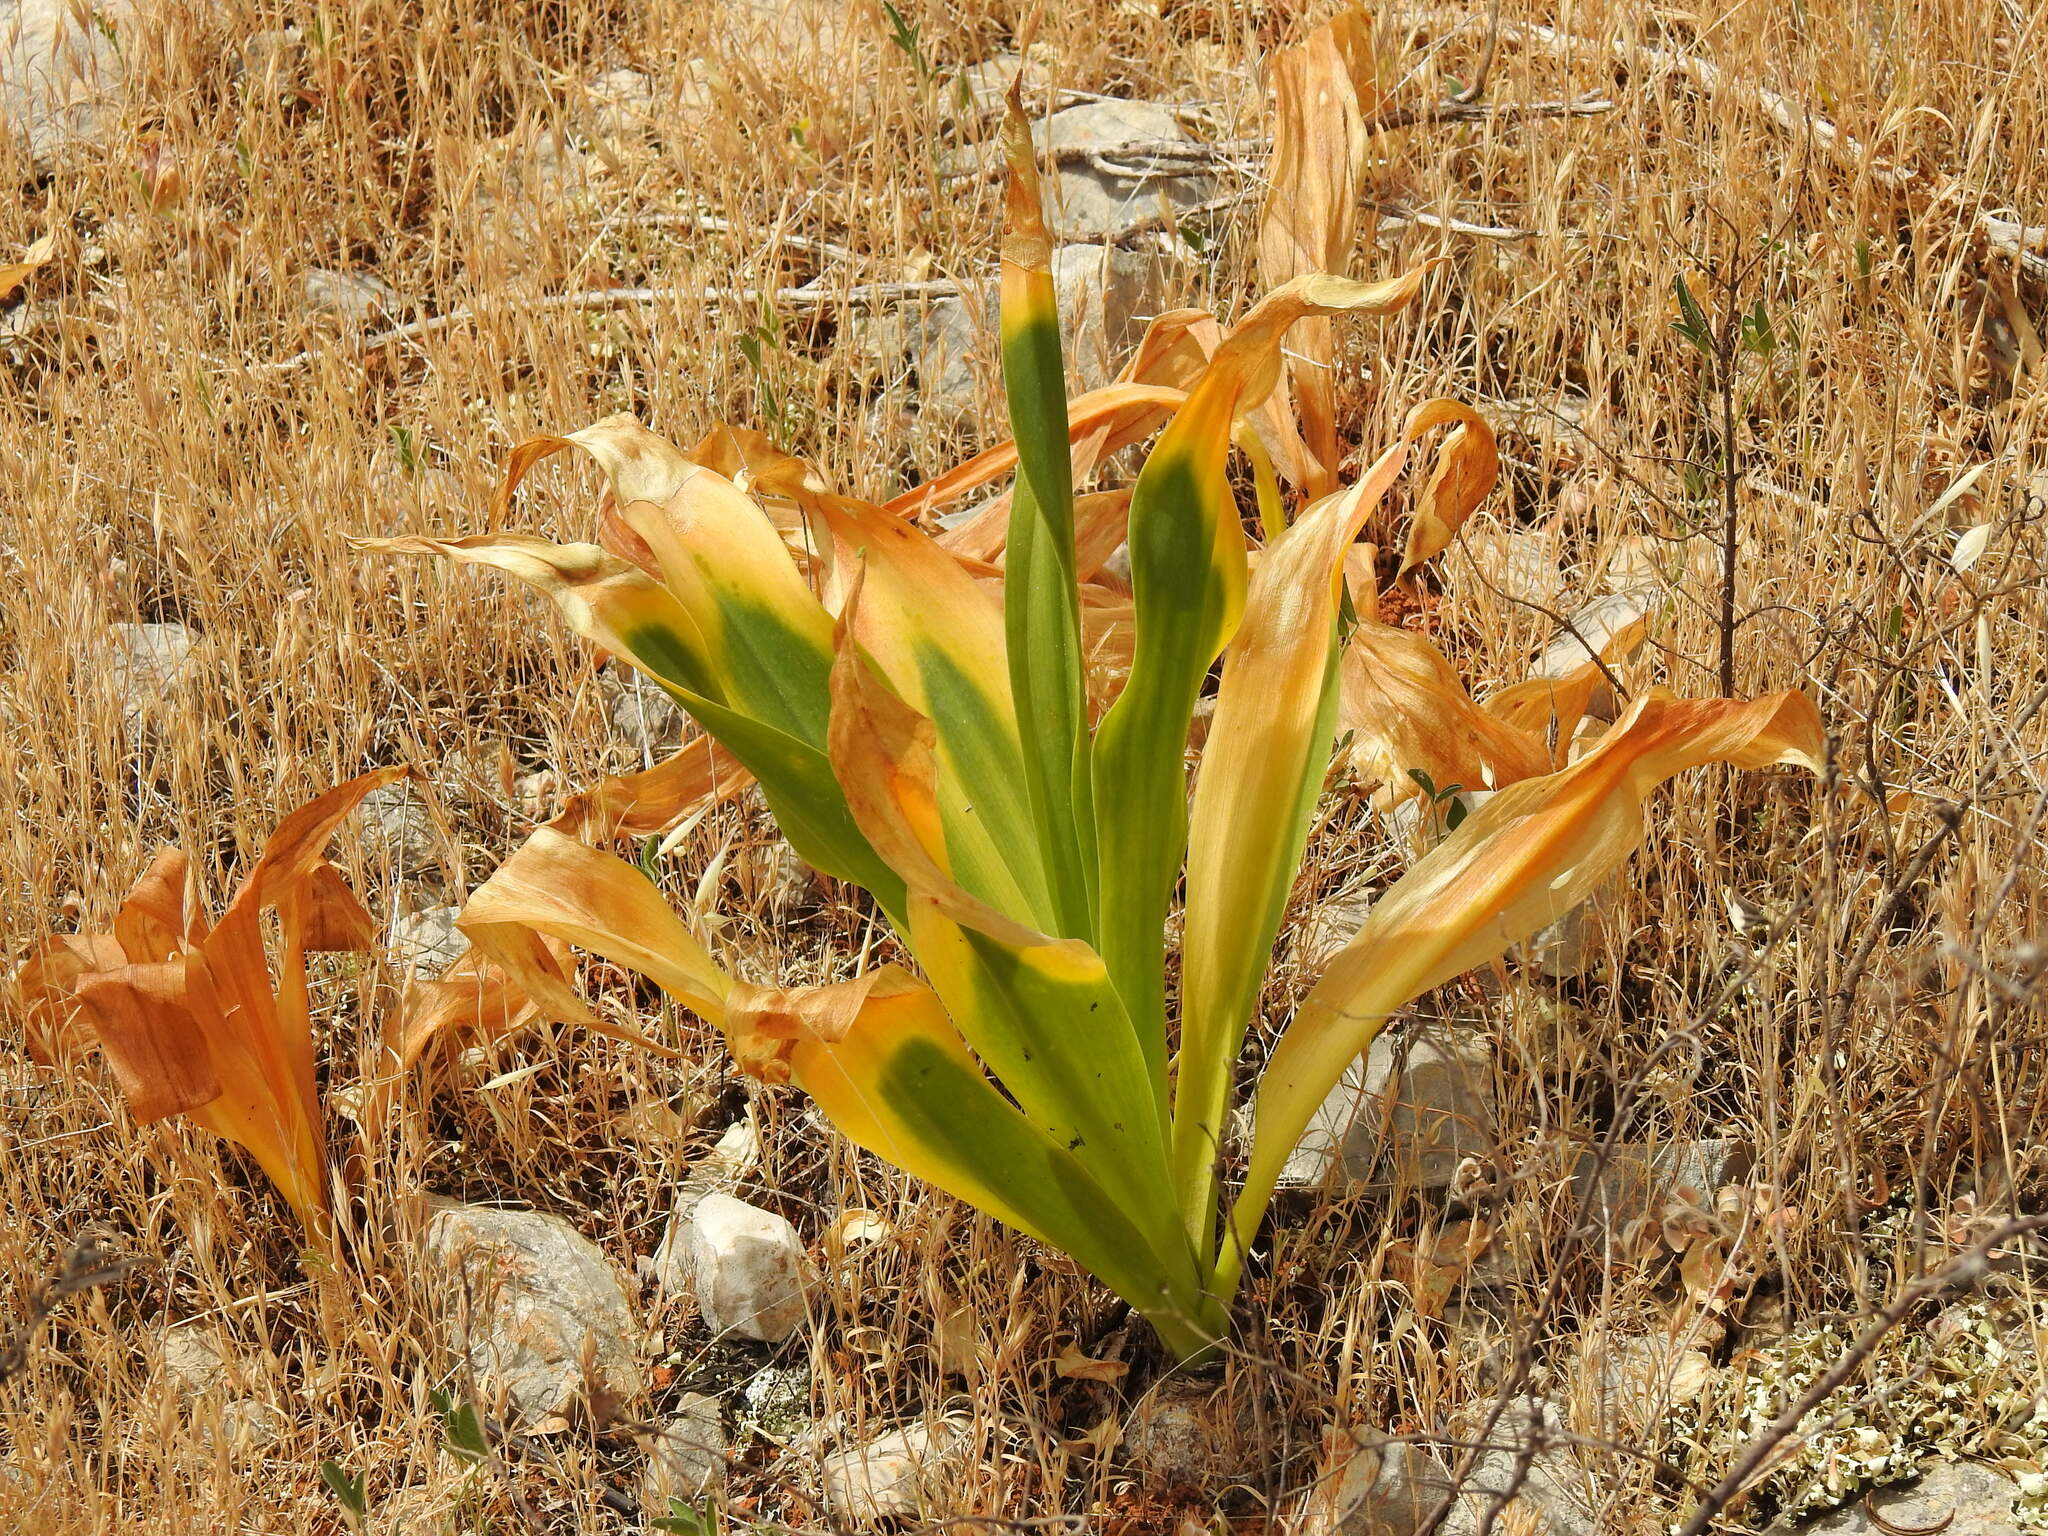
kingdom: Plantae
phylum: Tracheophyta
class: Liliopsida
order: Asparagales
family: Asparagaceae
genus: Drimia
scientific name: Drimia maritima
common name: Maritime squill
